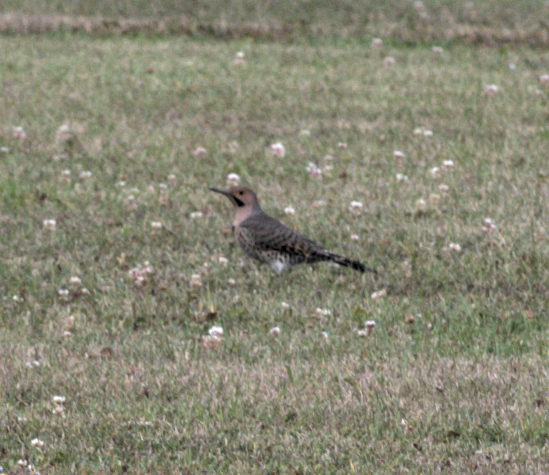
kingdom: Animalia
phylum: Chordata
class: Aves
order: Piciformes
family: Picidae
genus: Colaptes
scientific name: Colaptes auratus
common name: Northern flicker
